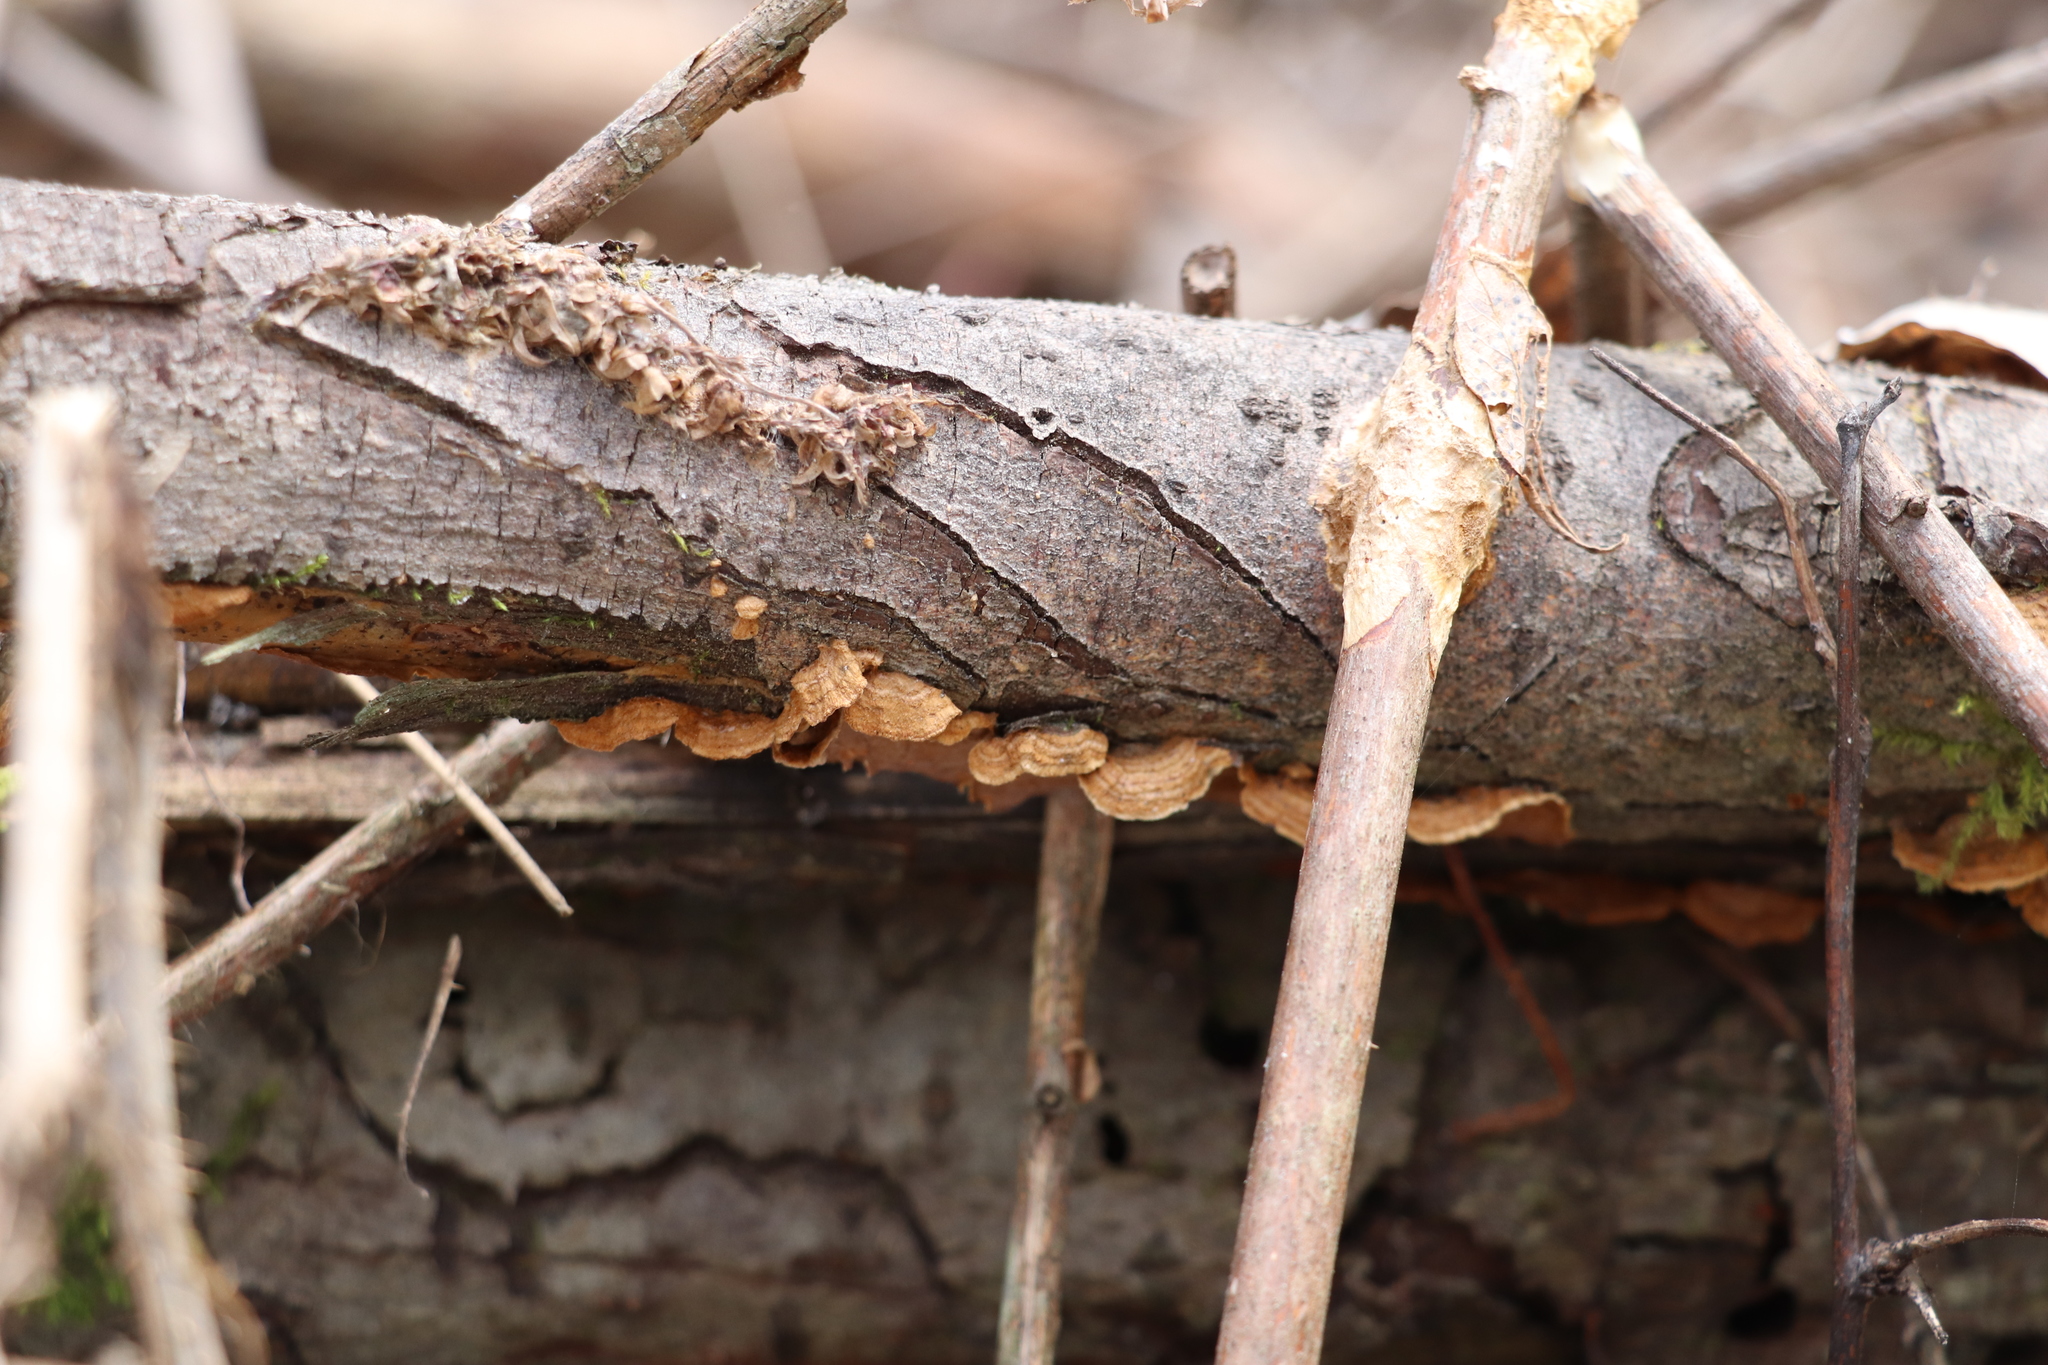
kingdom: Fungi
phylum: Basidiomycota
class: Agaricomycetes
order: Hymenochaetales
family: Hymenochaetaceae
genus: Hydnoporia
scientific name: Hydnoporia tabacina
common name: Willow glue
